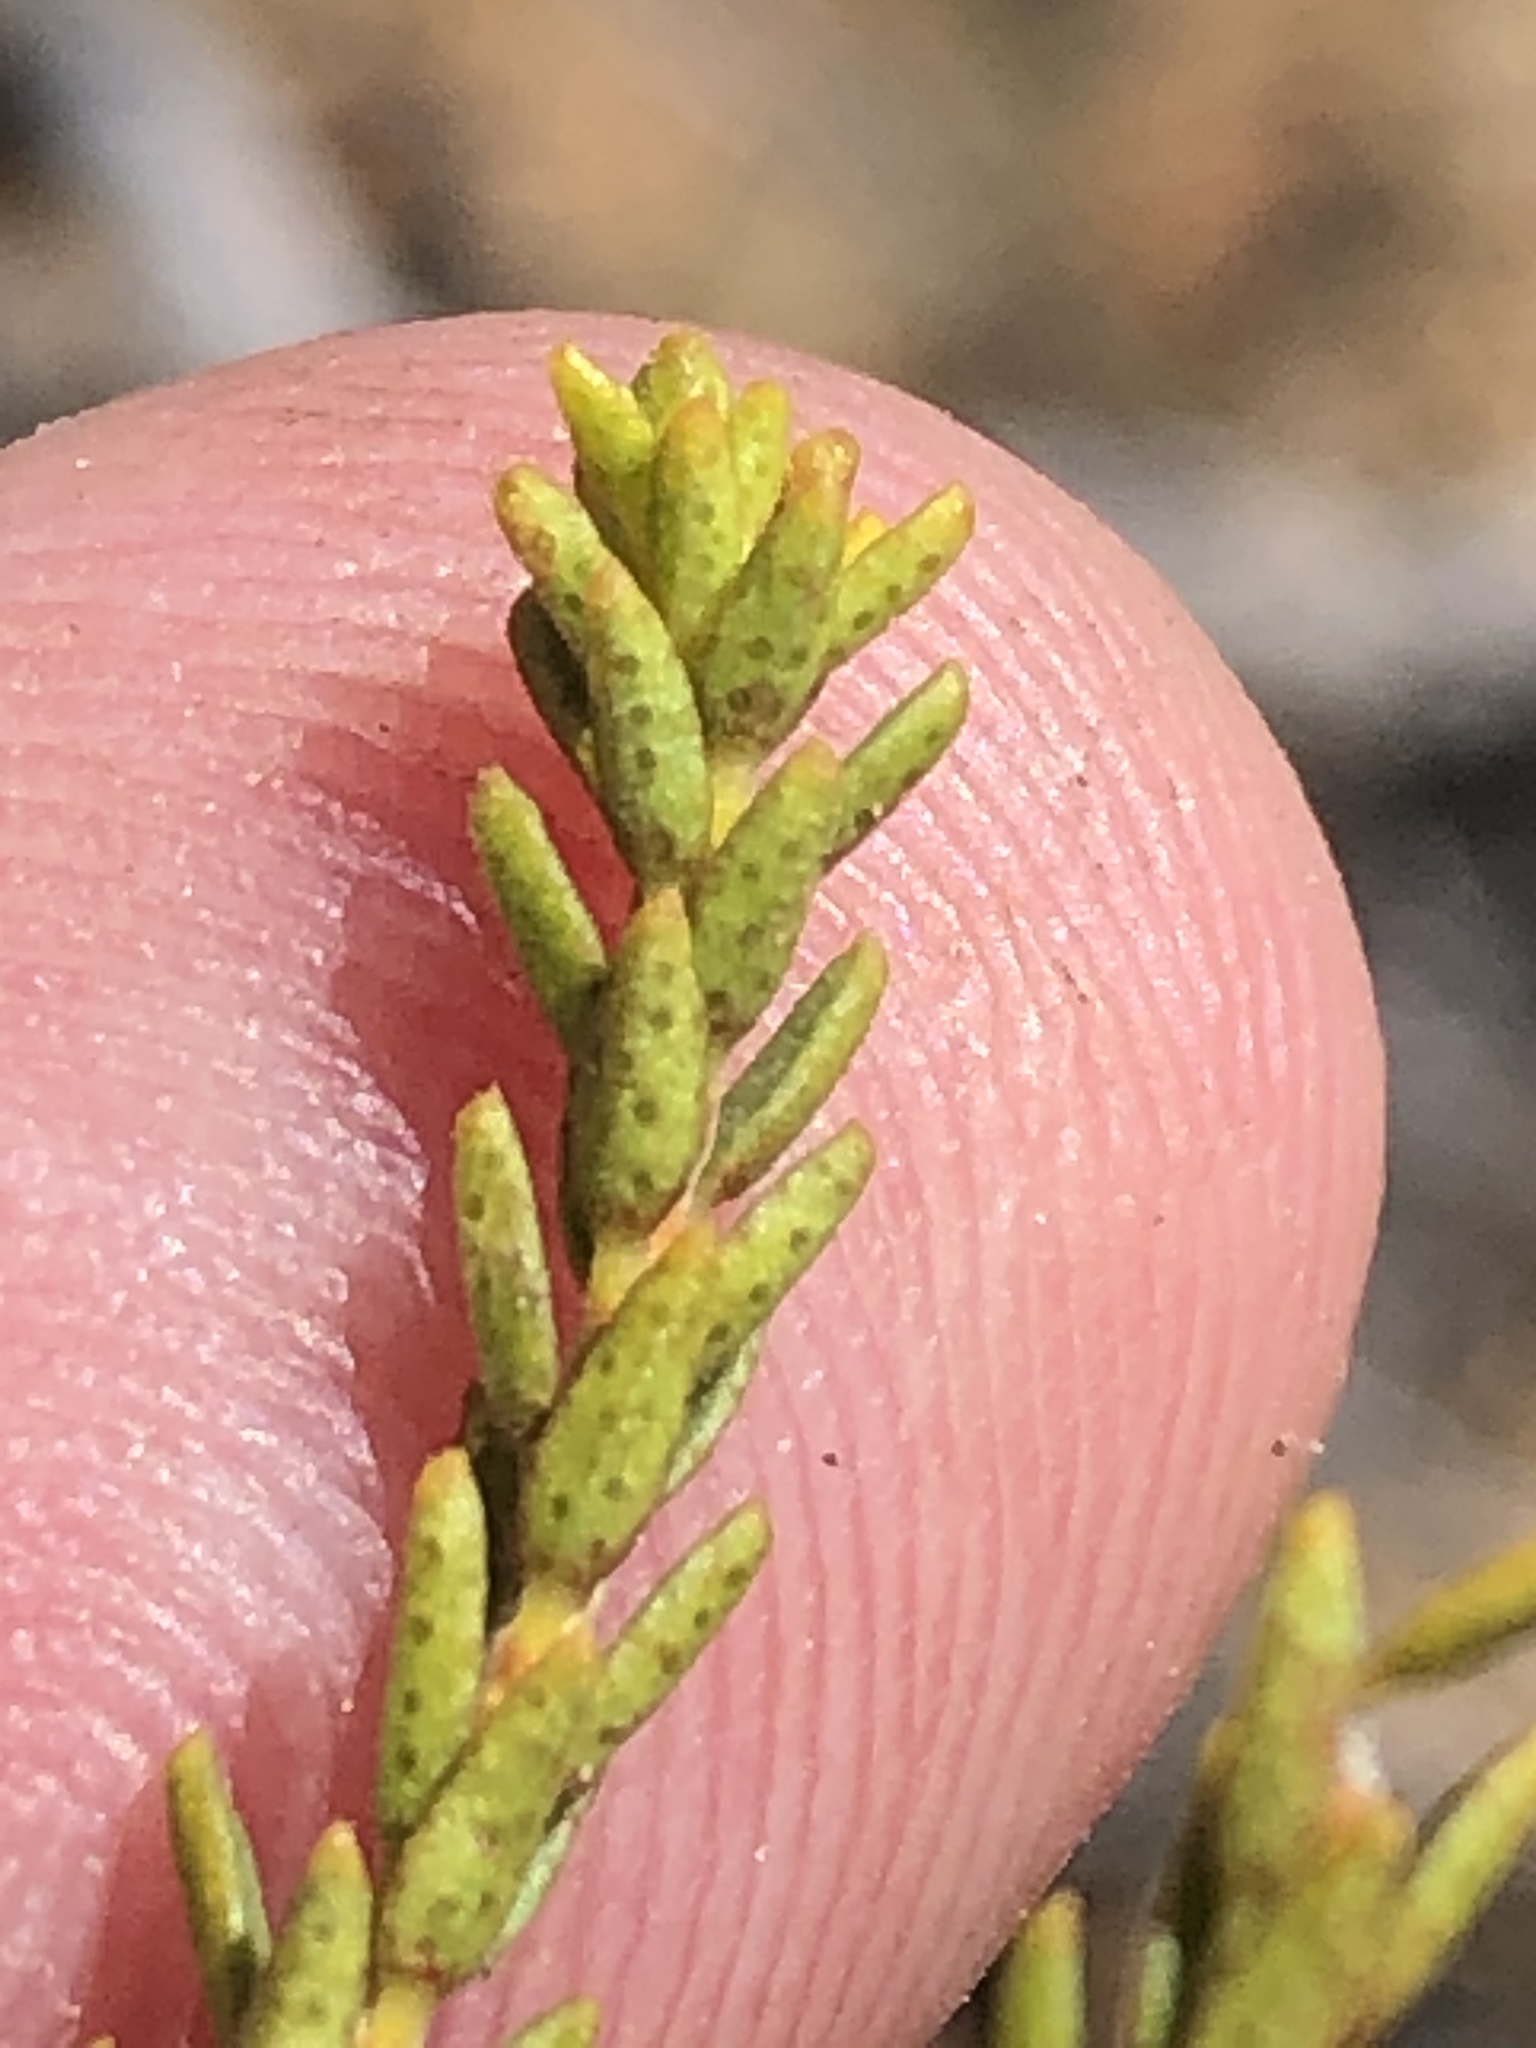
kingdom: Plantae
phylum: Tracheophyta
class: Magnoliopsida
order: Sapindales
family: Rutaceae
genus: Agathosma
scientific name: Agathosma capensis
